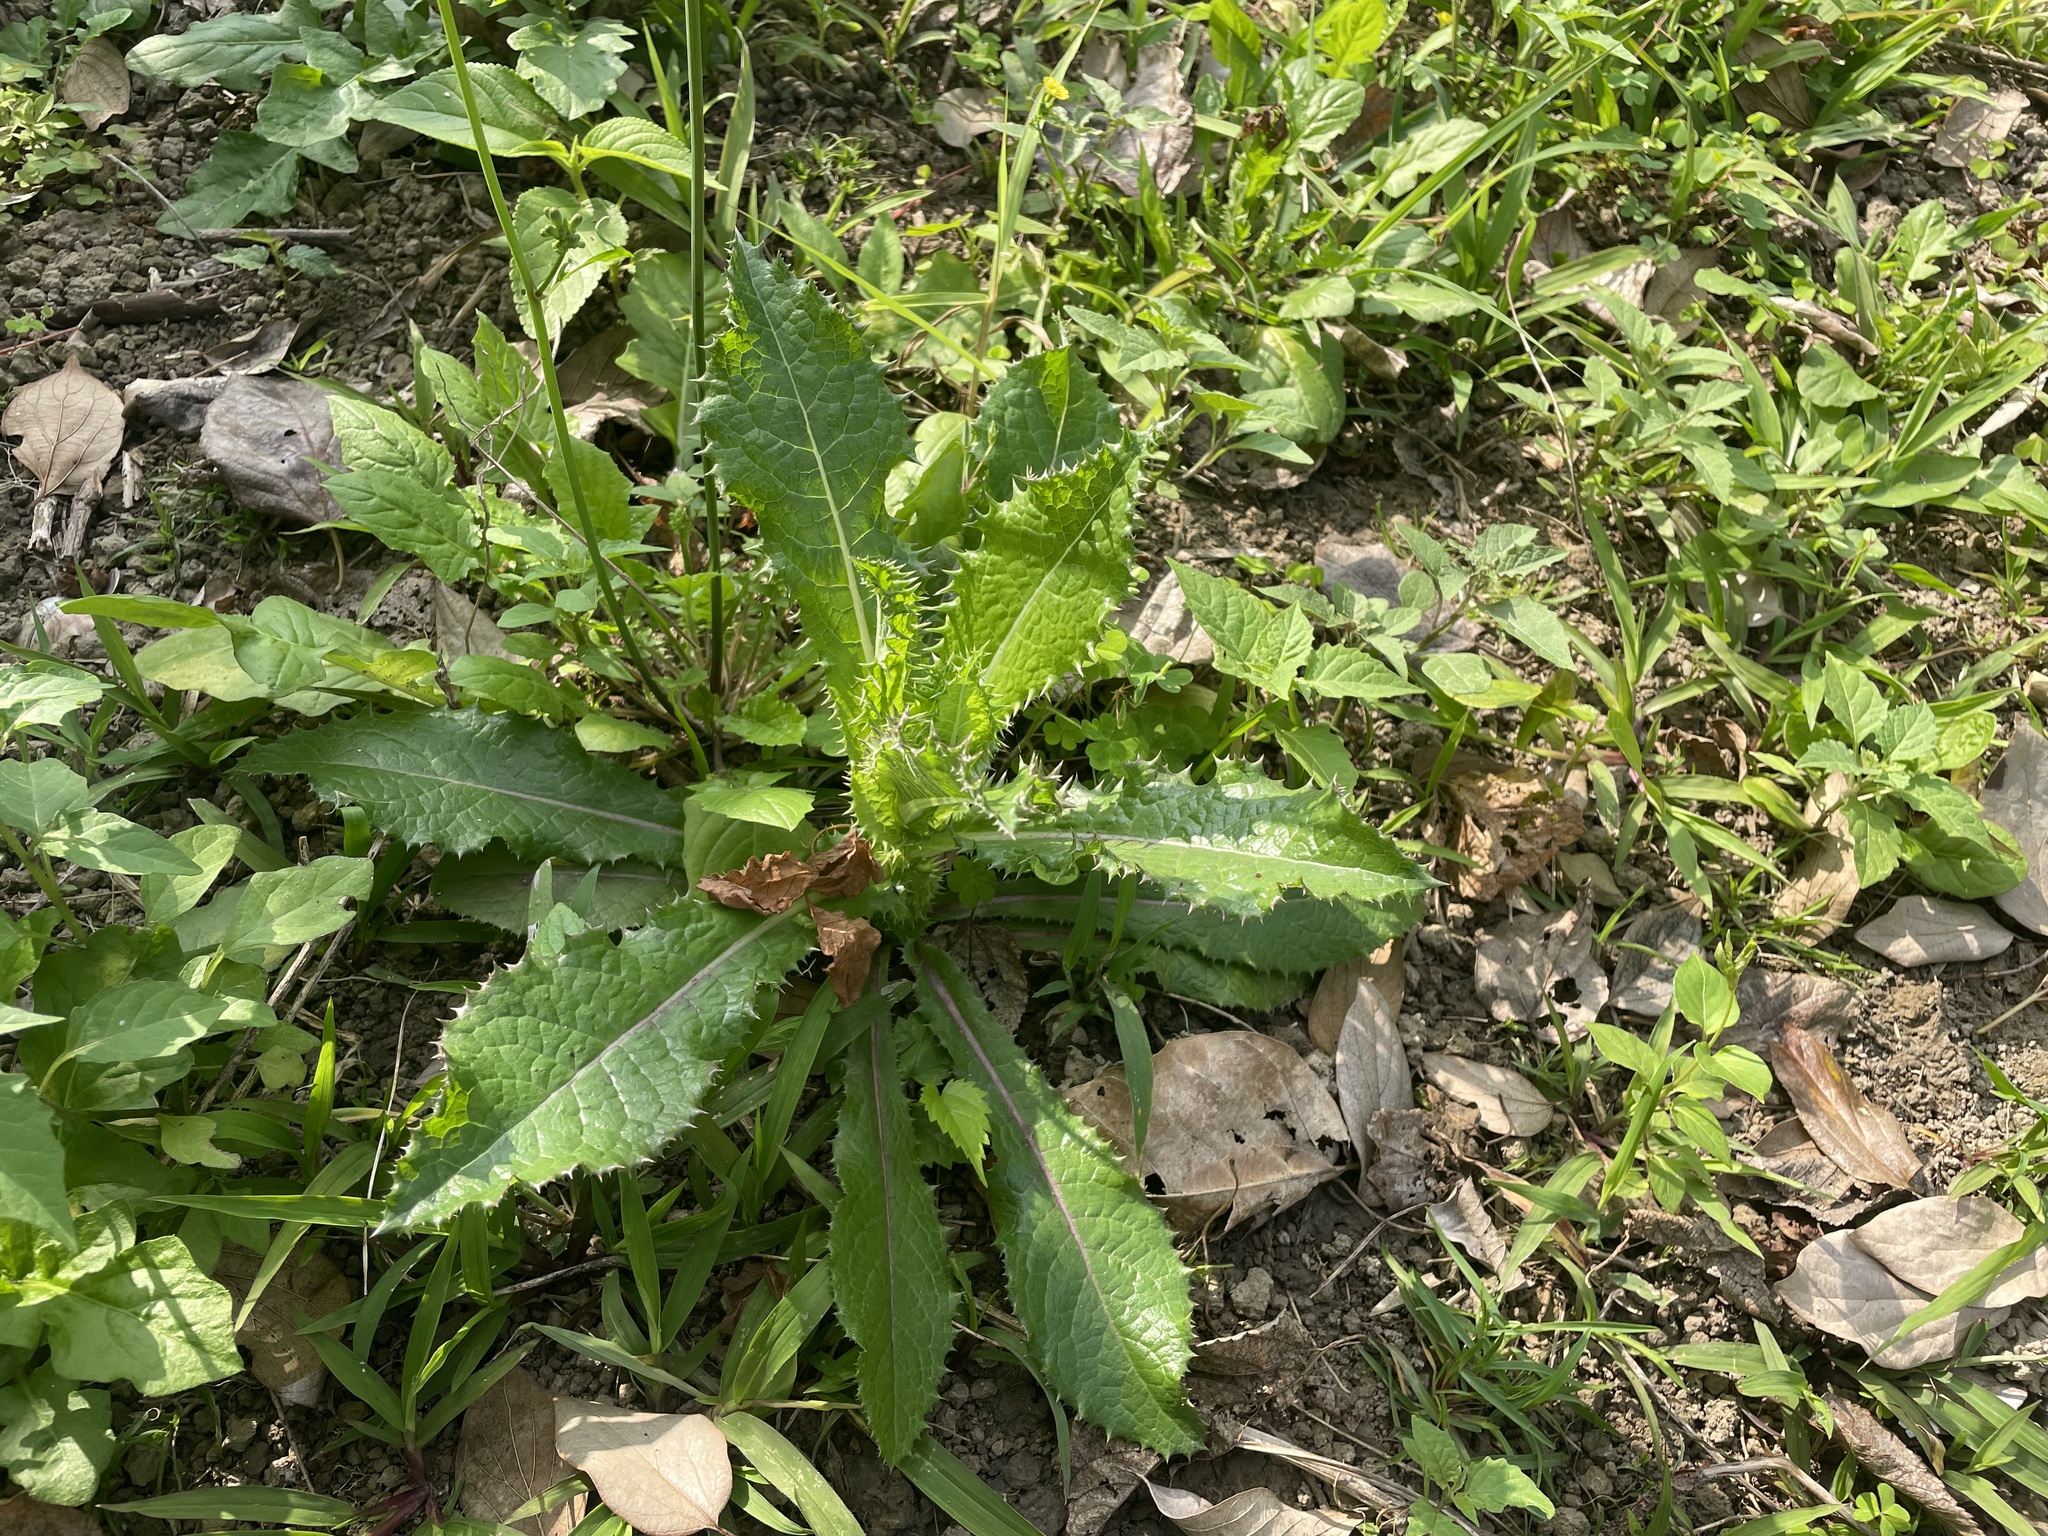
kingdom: Plantae
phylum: Tracheophyta
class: Magnoliopsida
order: Asterales
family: Asteraceae
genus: Sonchus
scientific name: Sonchus asper
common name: Prickly sow-thistle
